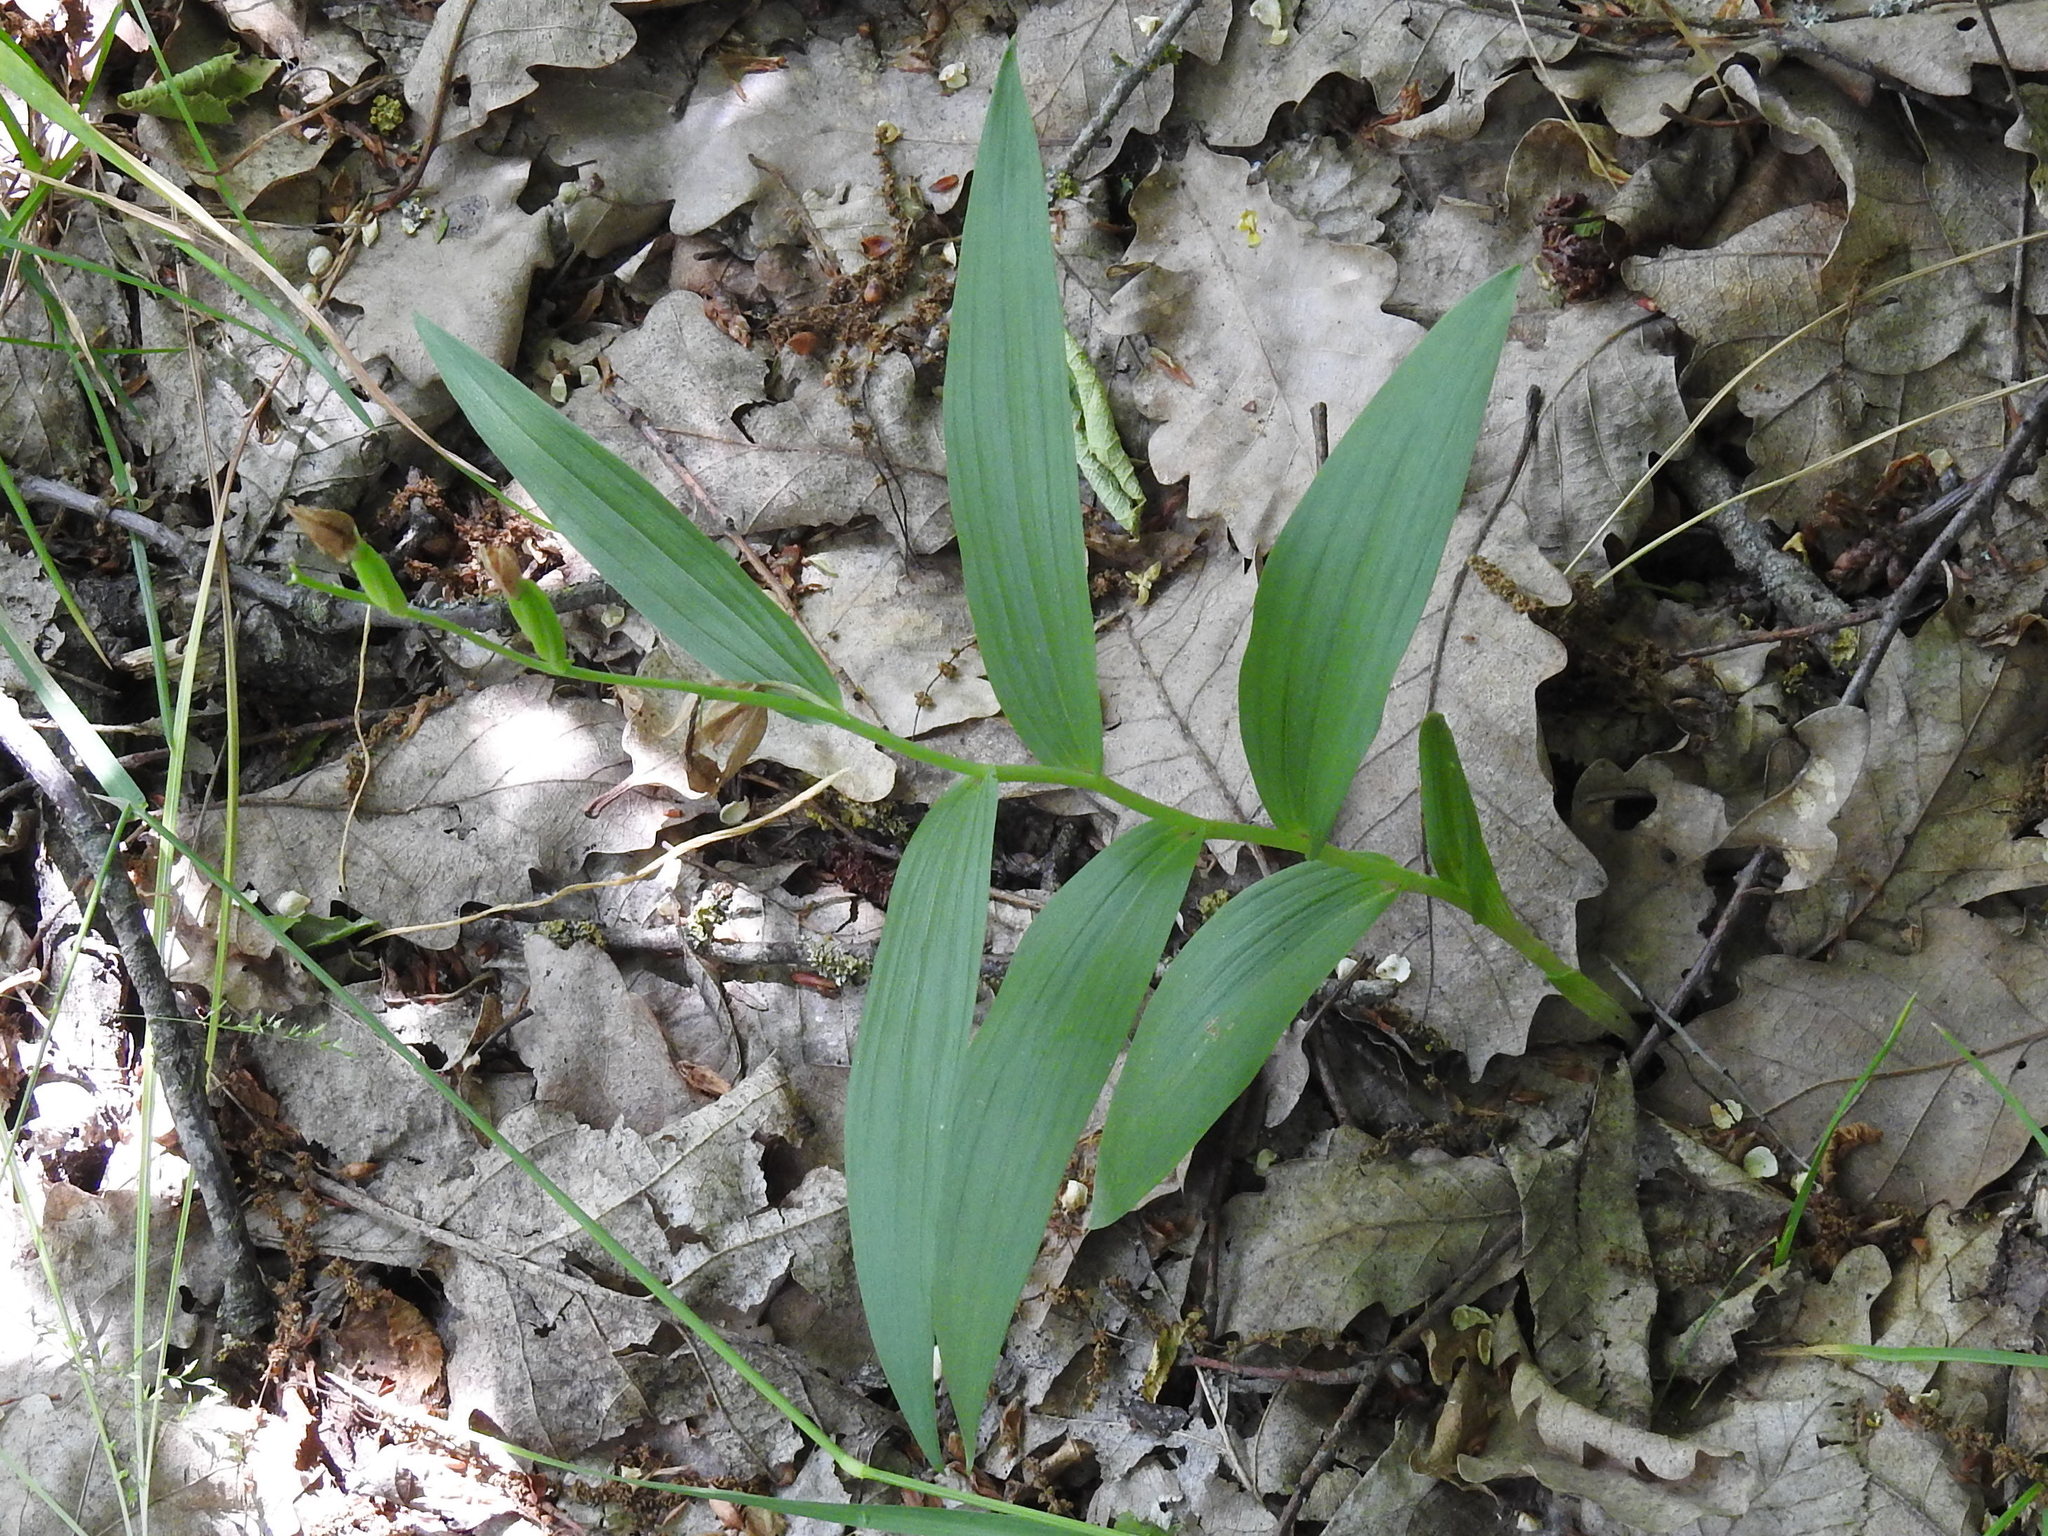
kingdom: Plantae
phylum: Tracheophyta
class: Liliopsida
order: Asparagales
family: Orchidaceae
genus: Cephalanthera
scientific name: Cephalanthera longifolia
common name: Narrow-leaved helleborine
